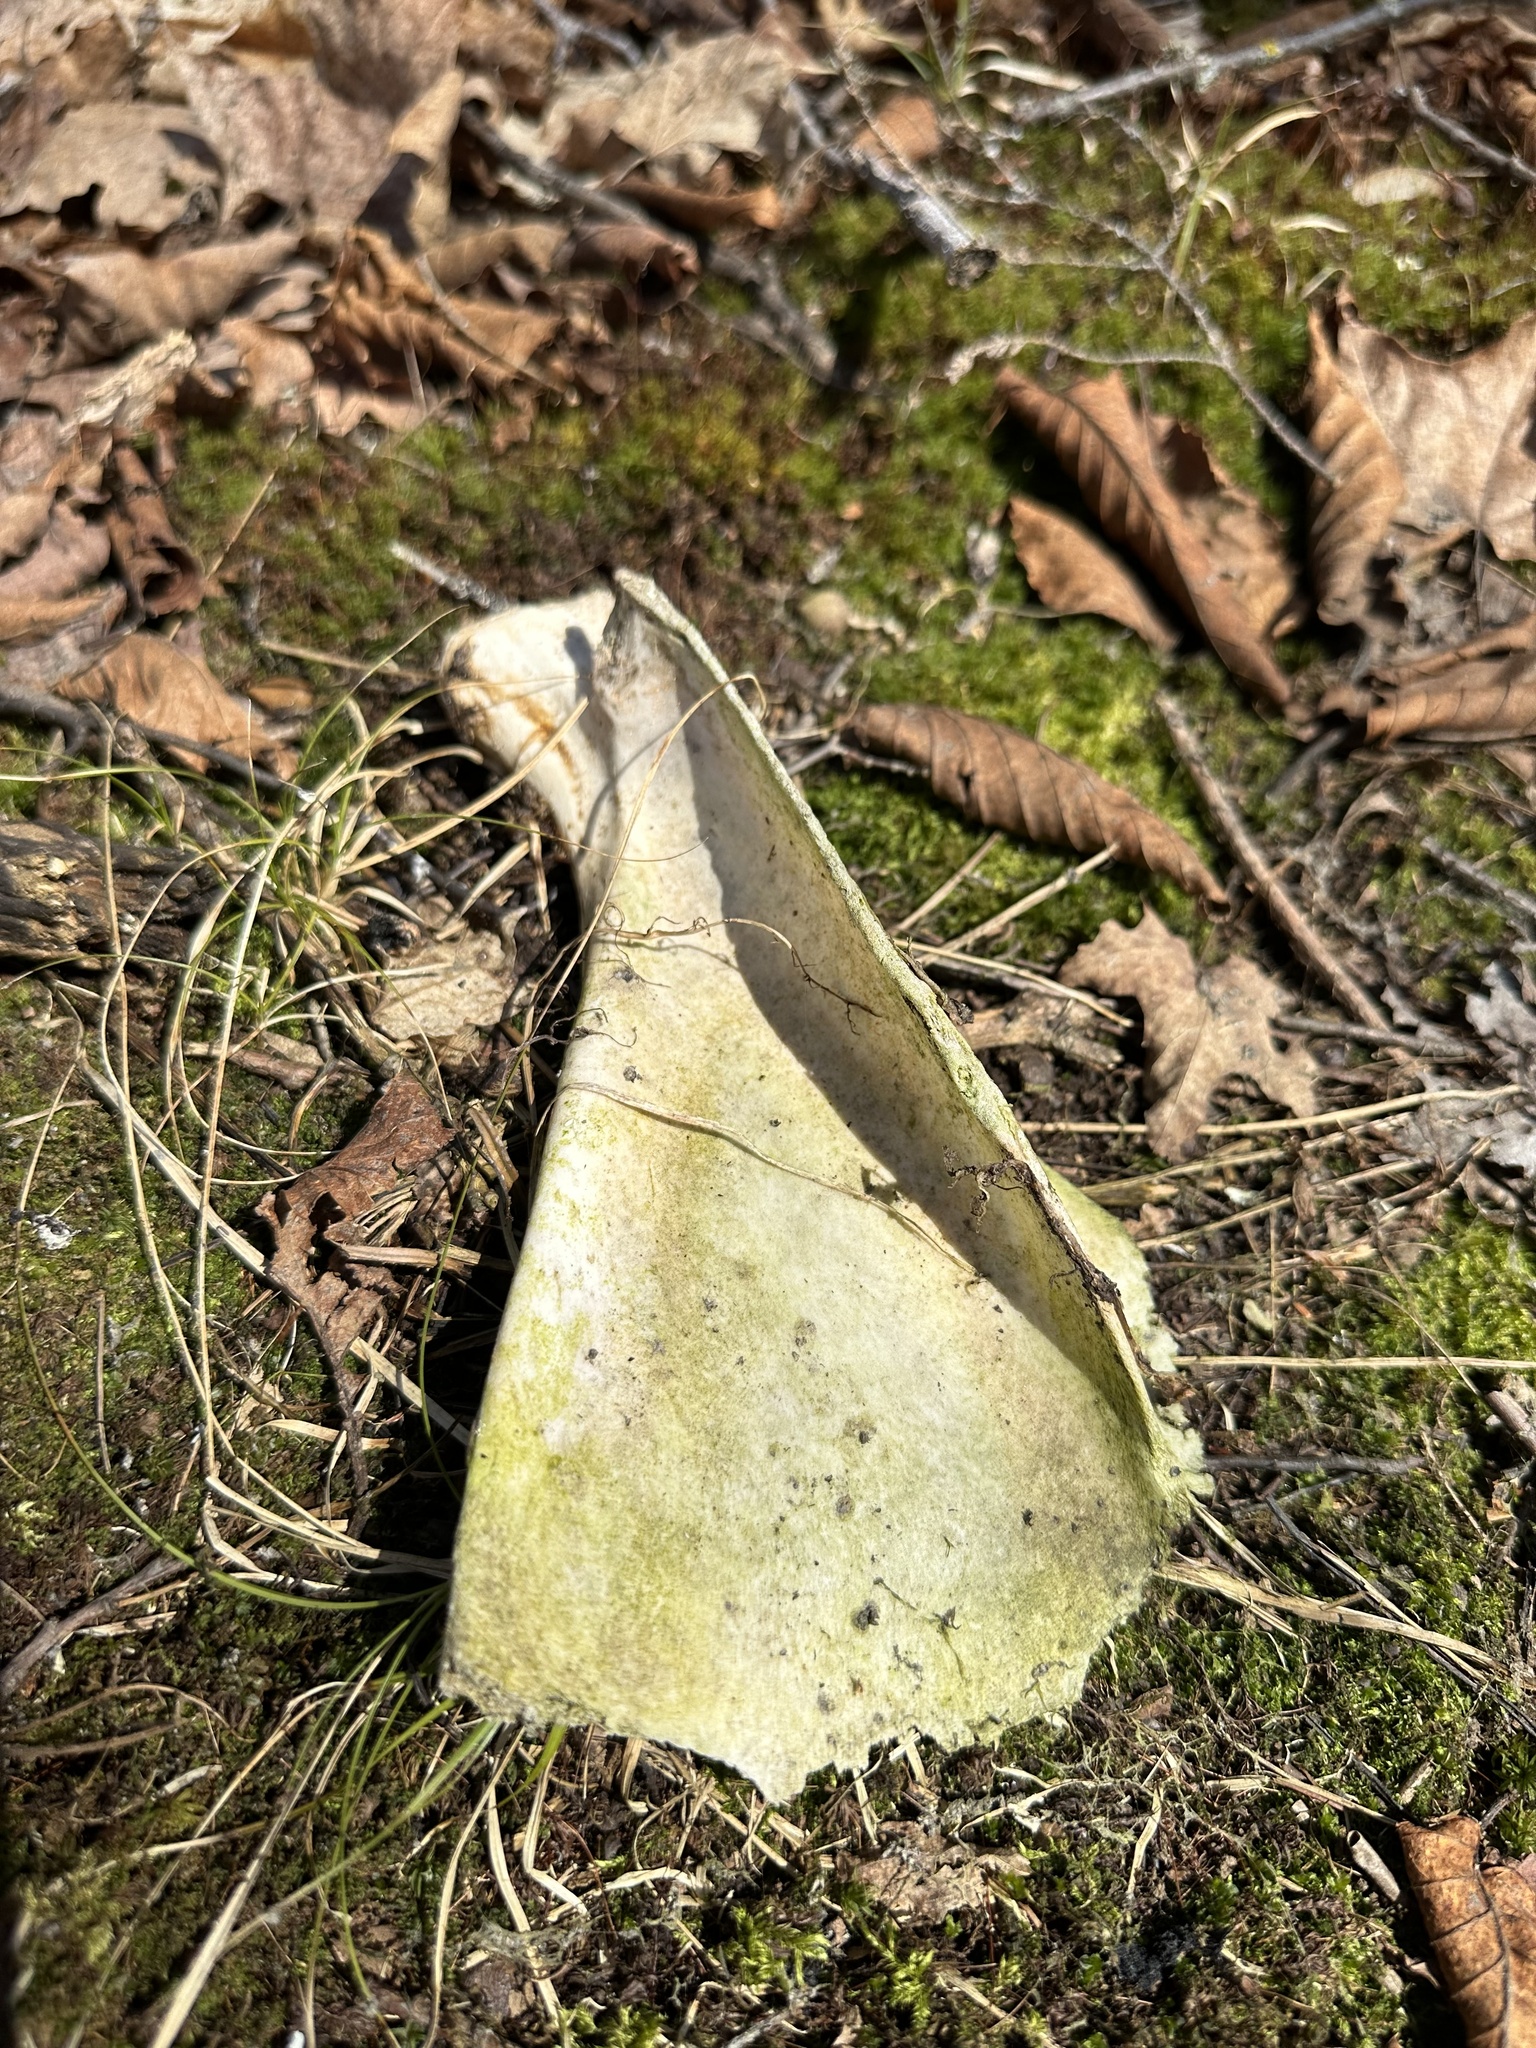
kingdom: Animalia
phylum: Chordata
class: Mammalia
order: Artiodactyla
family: Cervidae
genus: Odocoileus
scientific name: Odocoileus virginianus
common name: White-tailed deer
